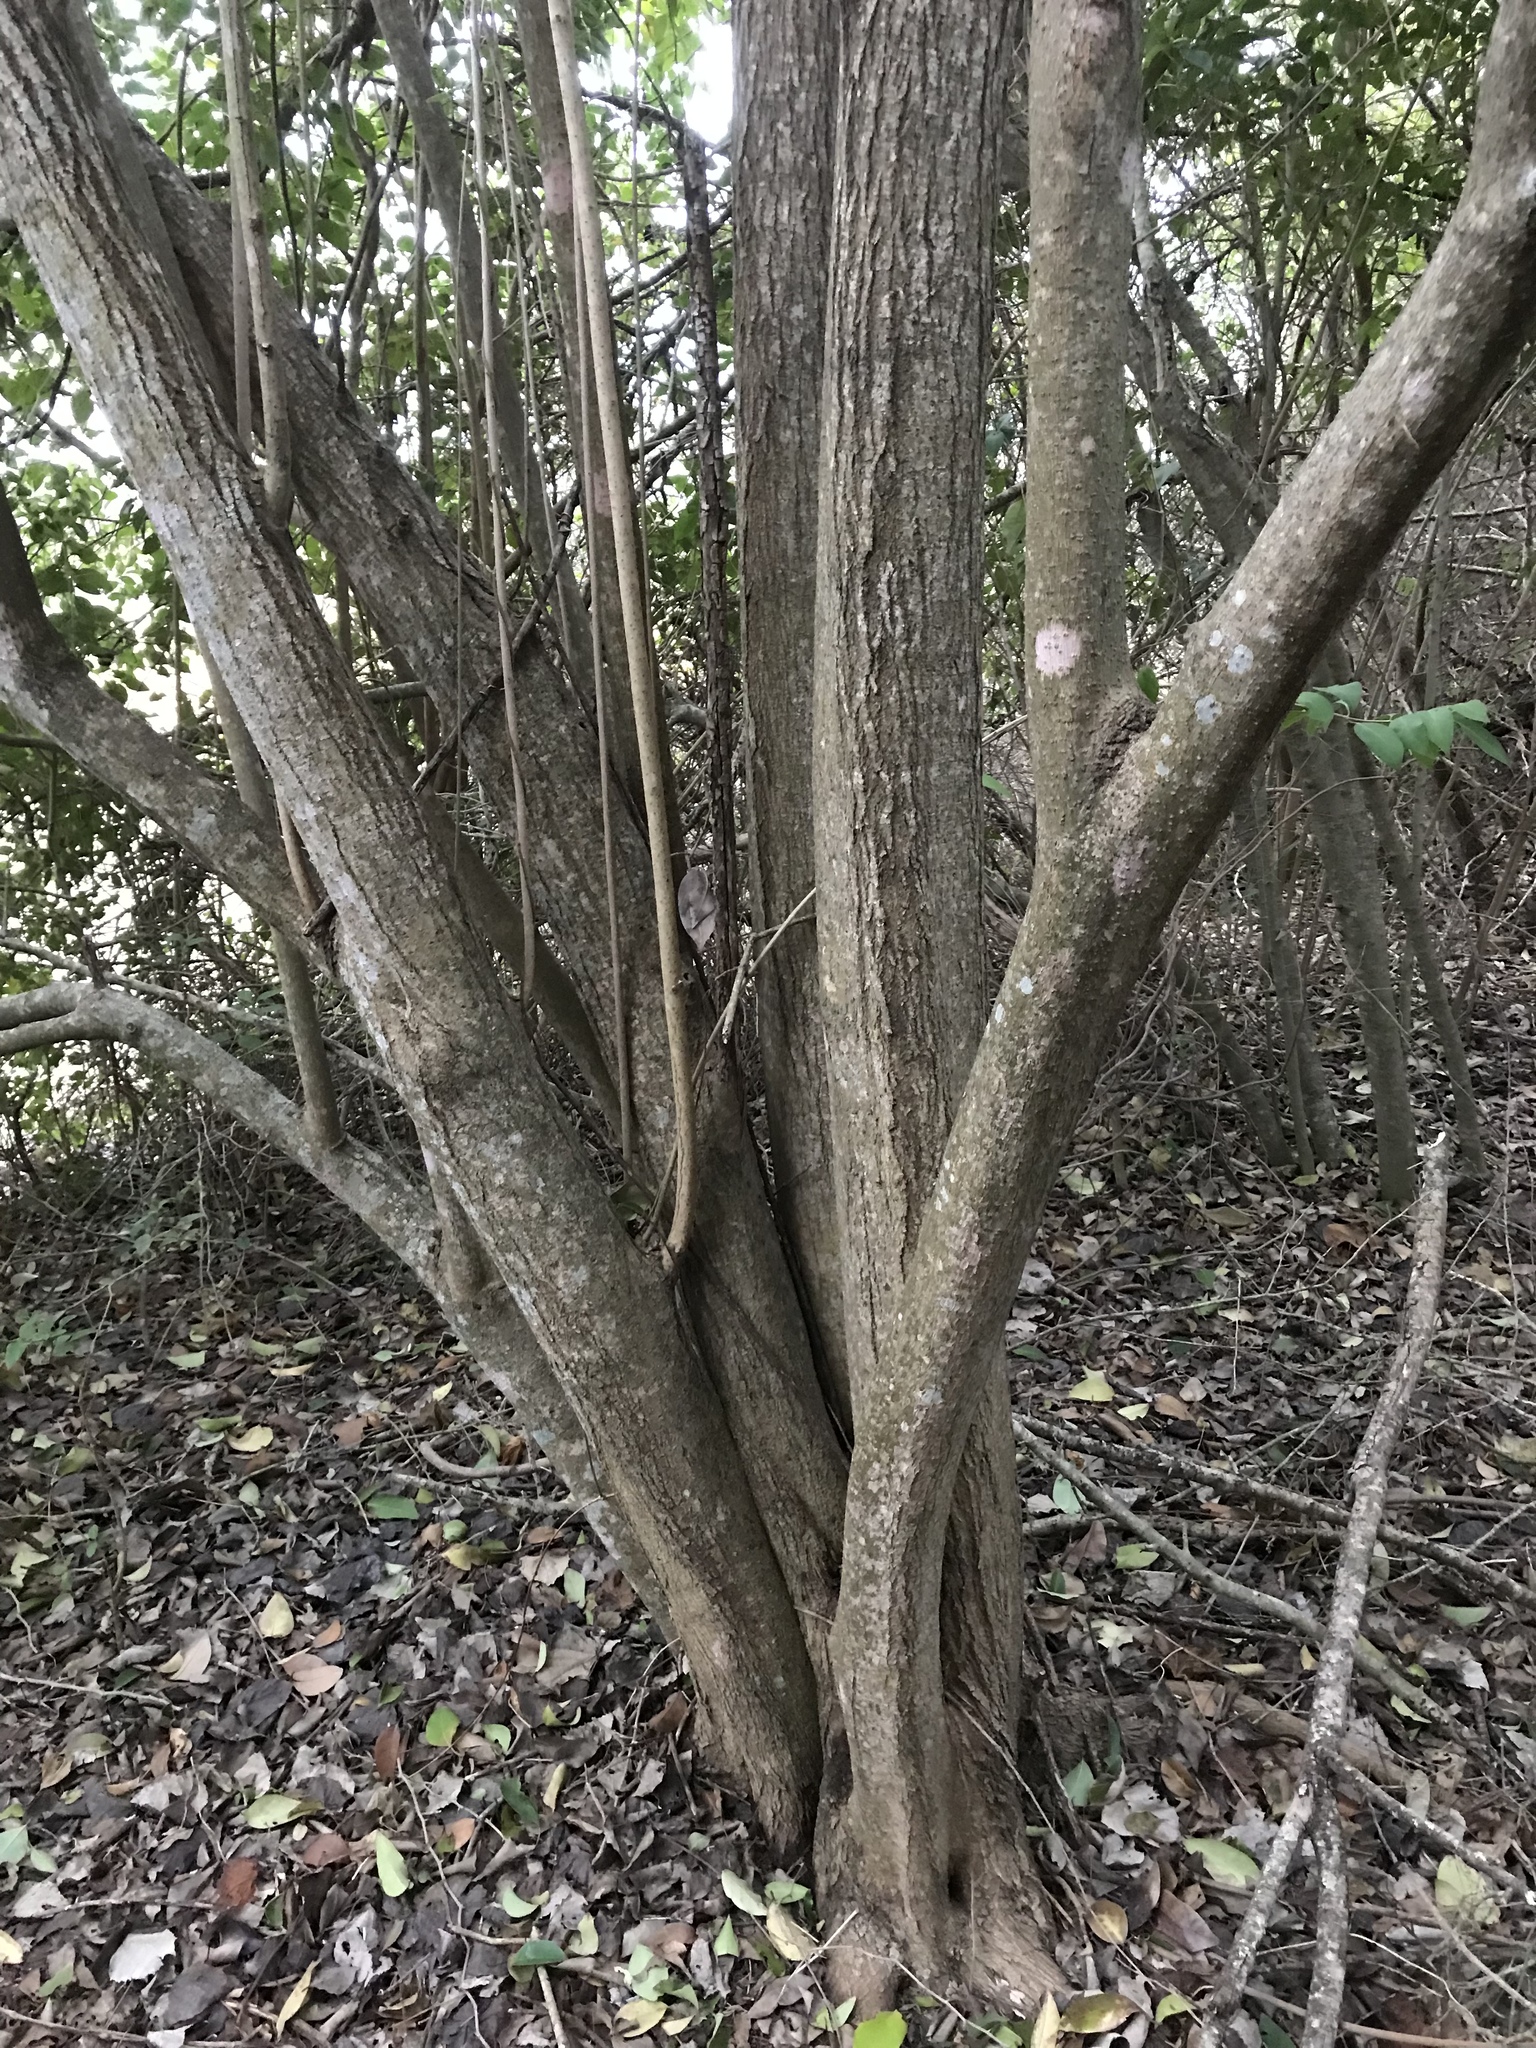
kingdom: Plantae
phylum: Tracheophyta
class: Magnoliopsida
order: Lamiales
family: Oleaceae
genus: Ligustrum
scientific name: Ligustrum lucidum
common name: Glossy privet
